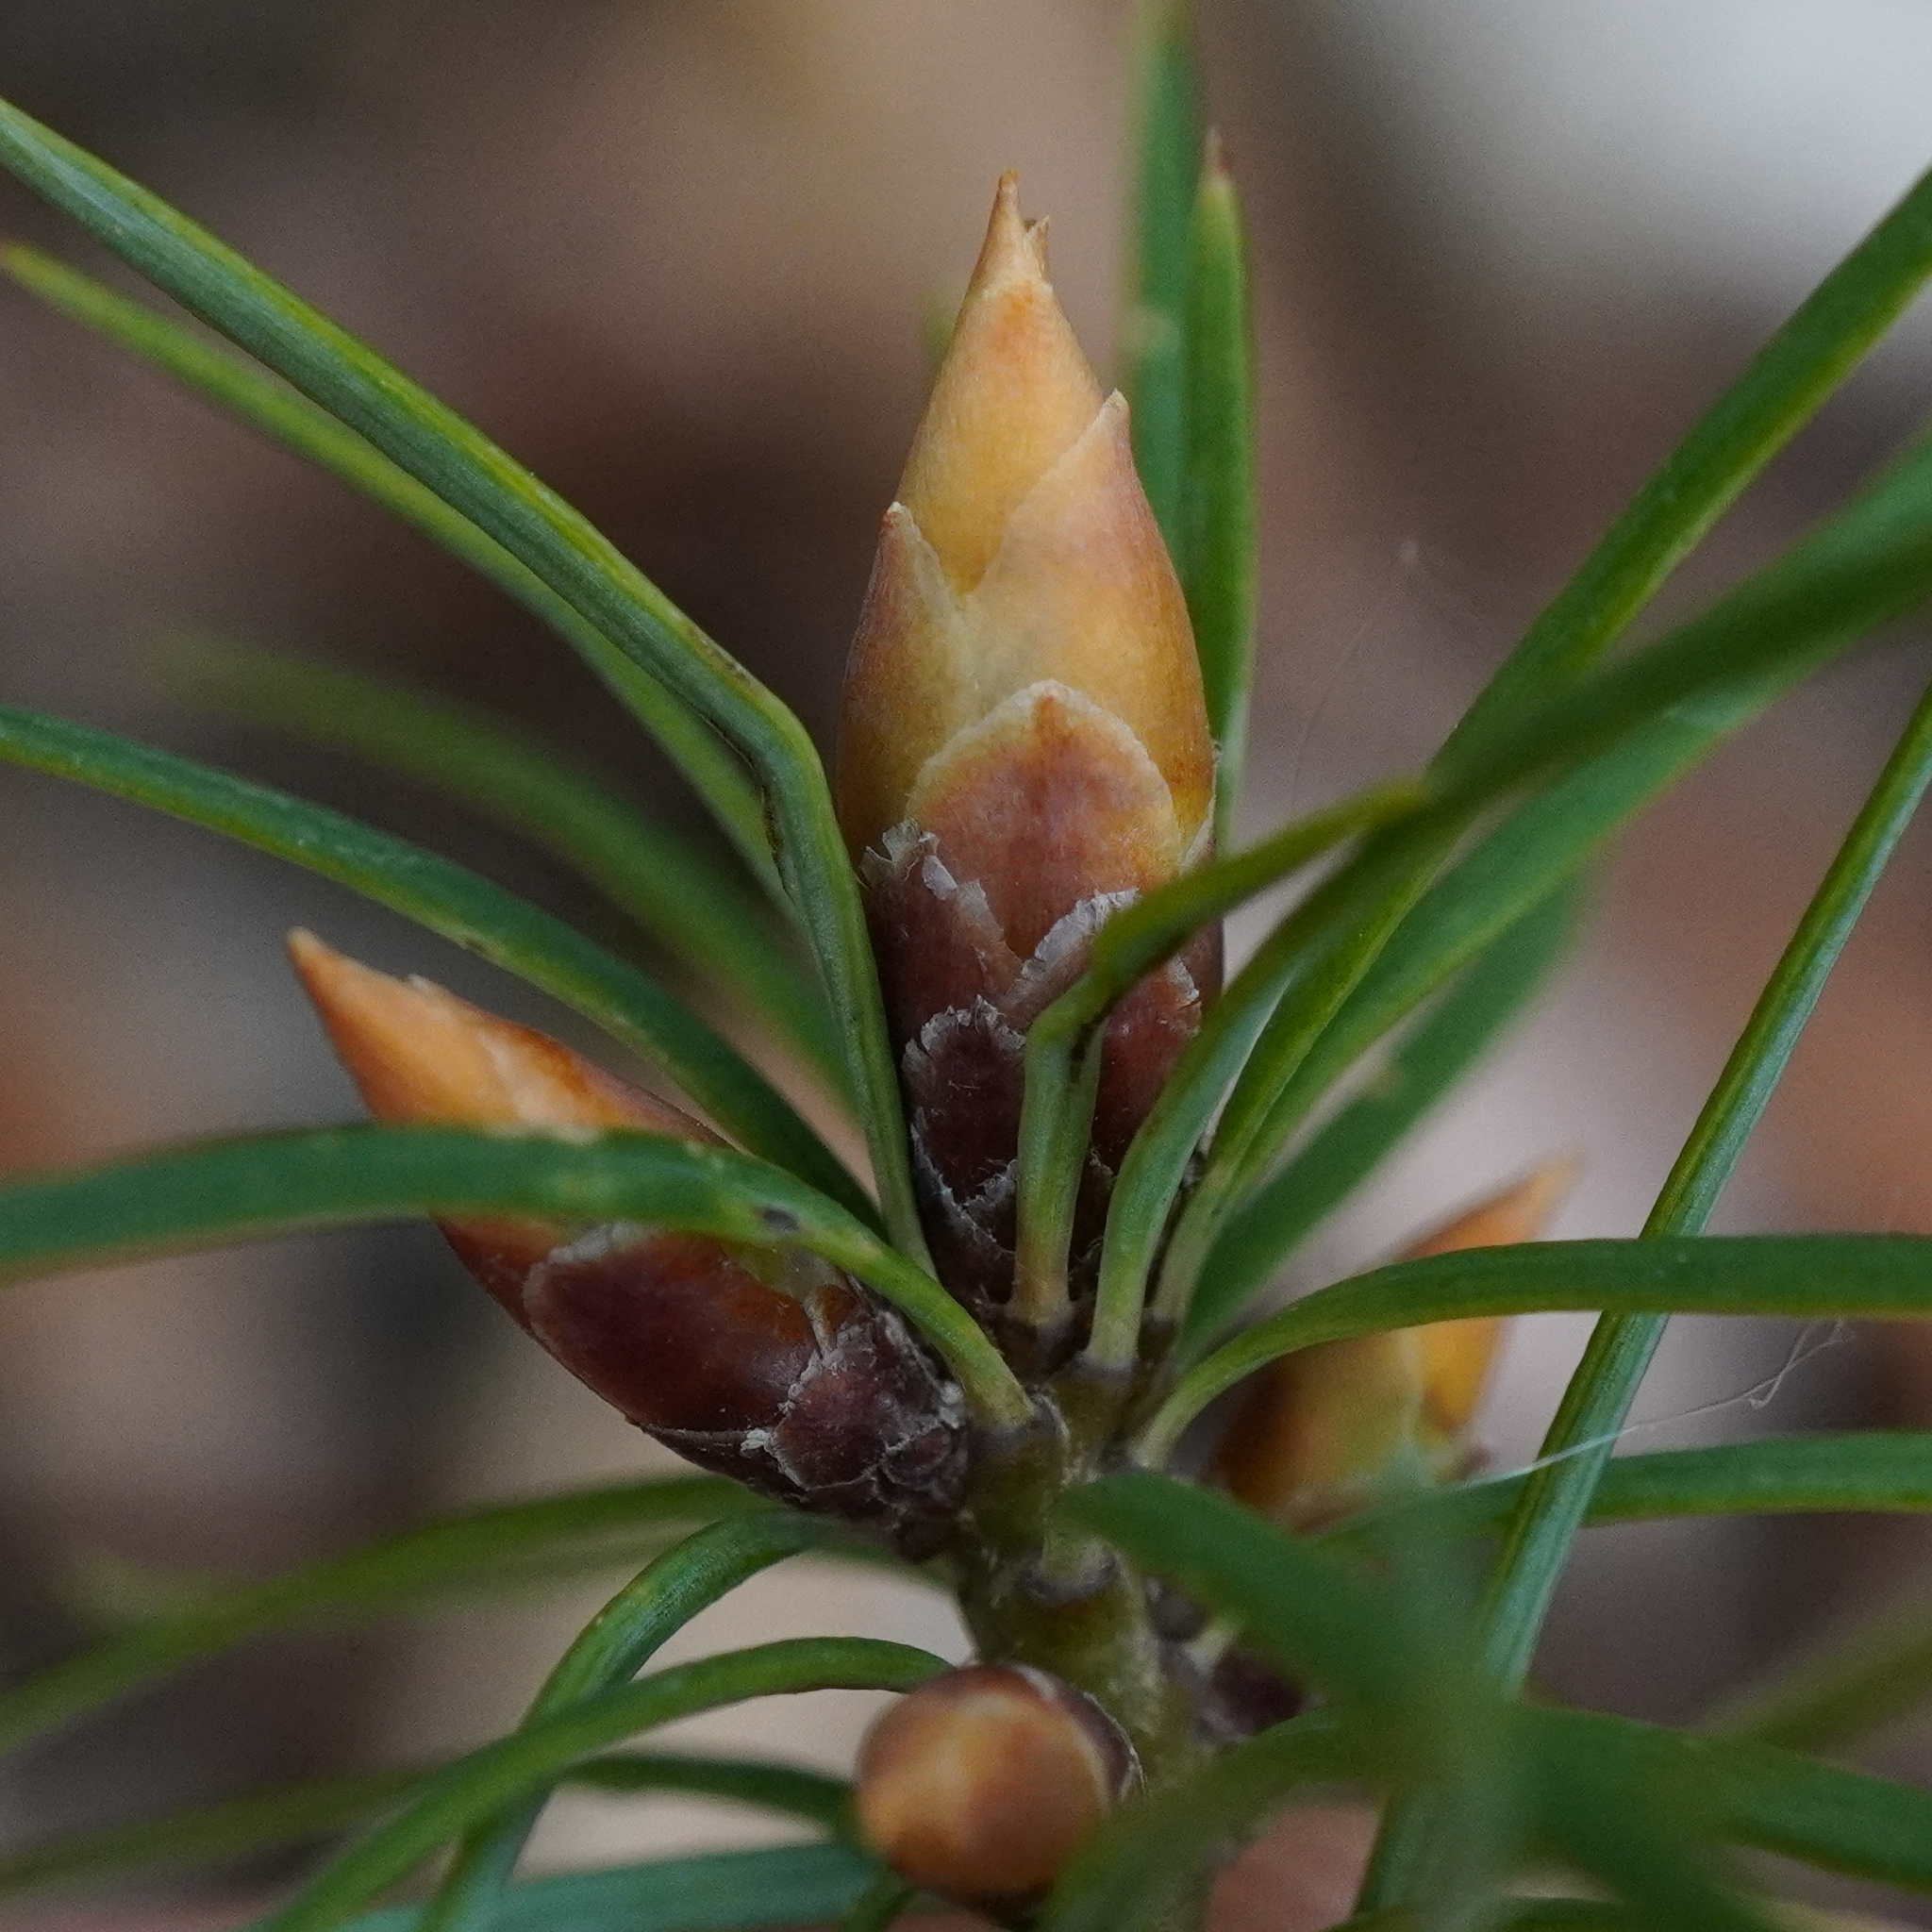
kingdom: Plantae
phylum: Tracheophyta
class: Pinopsida
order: Pinales
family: Pinaceae
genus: Pseudotsuga
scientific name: Pseudotsuga menziesii
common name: Douglas fir
